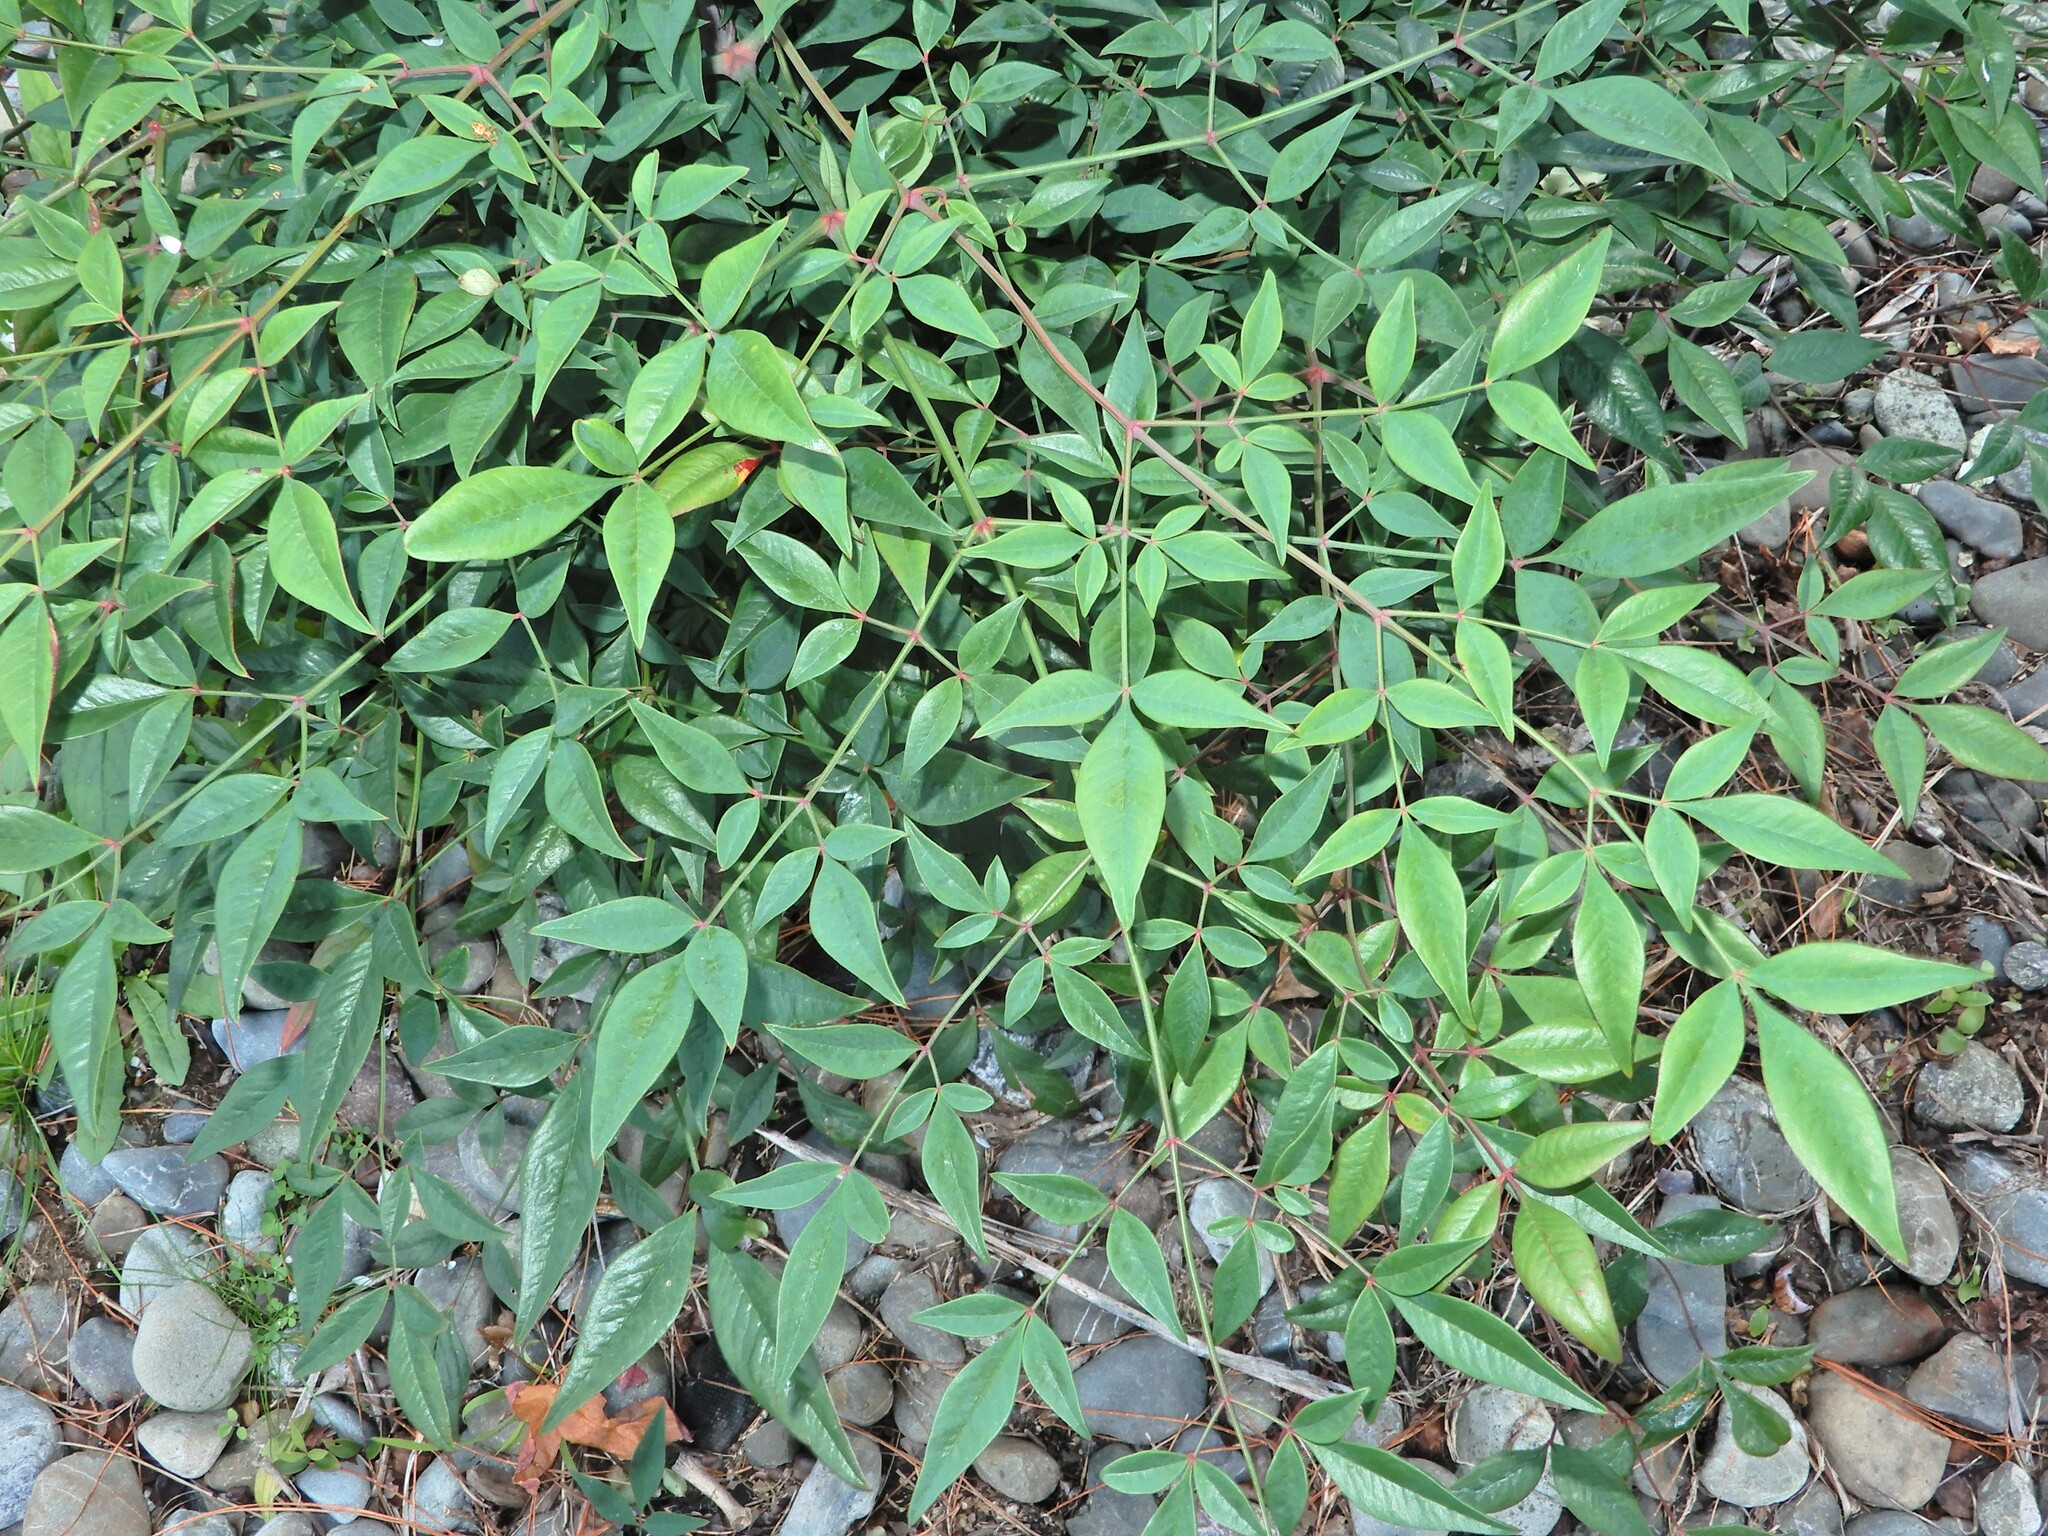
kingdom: Plantae
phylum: Tracheophyta
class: Magnoliopsida
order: Ranunculales
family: Berberidaceae
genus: Nandina
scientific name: Nandina domestica
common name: Sacred bamboo
